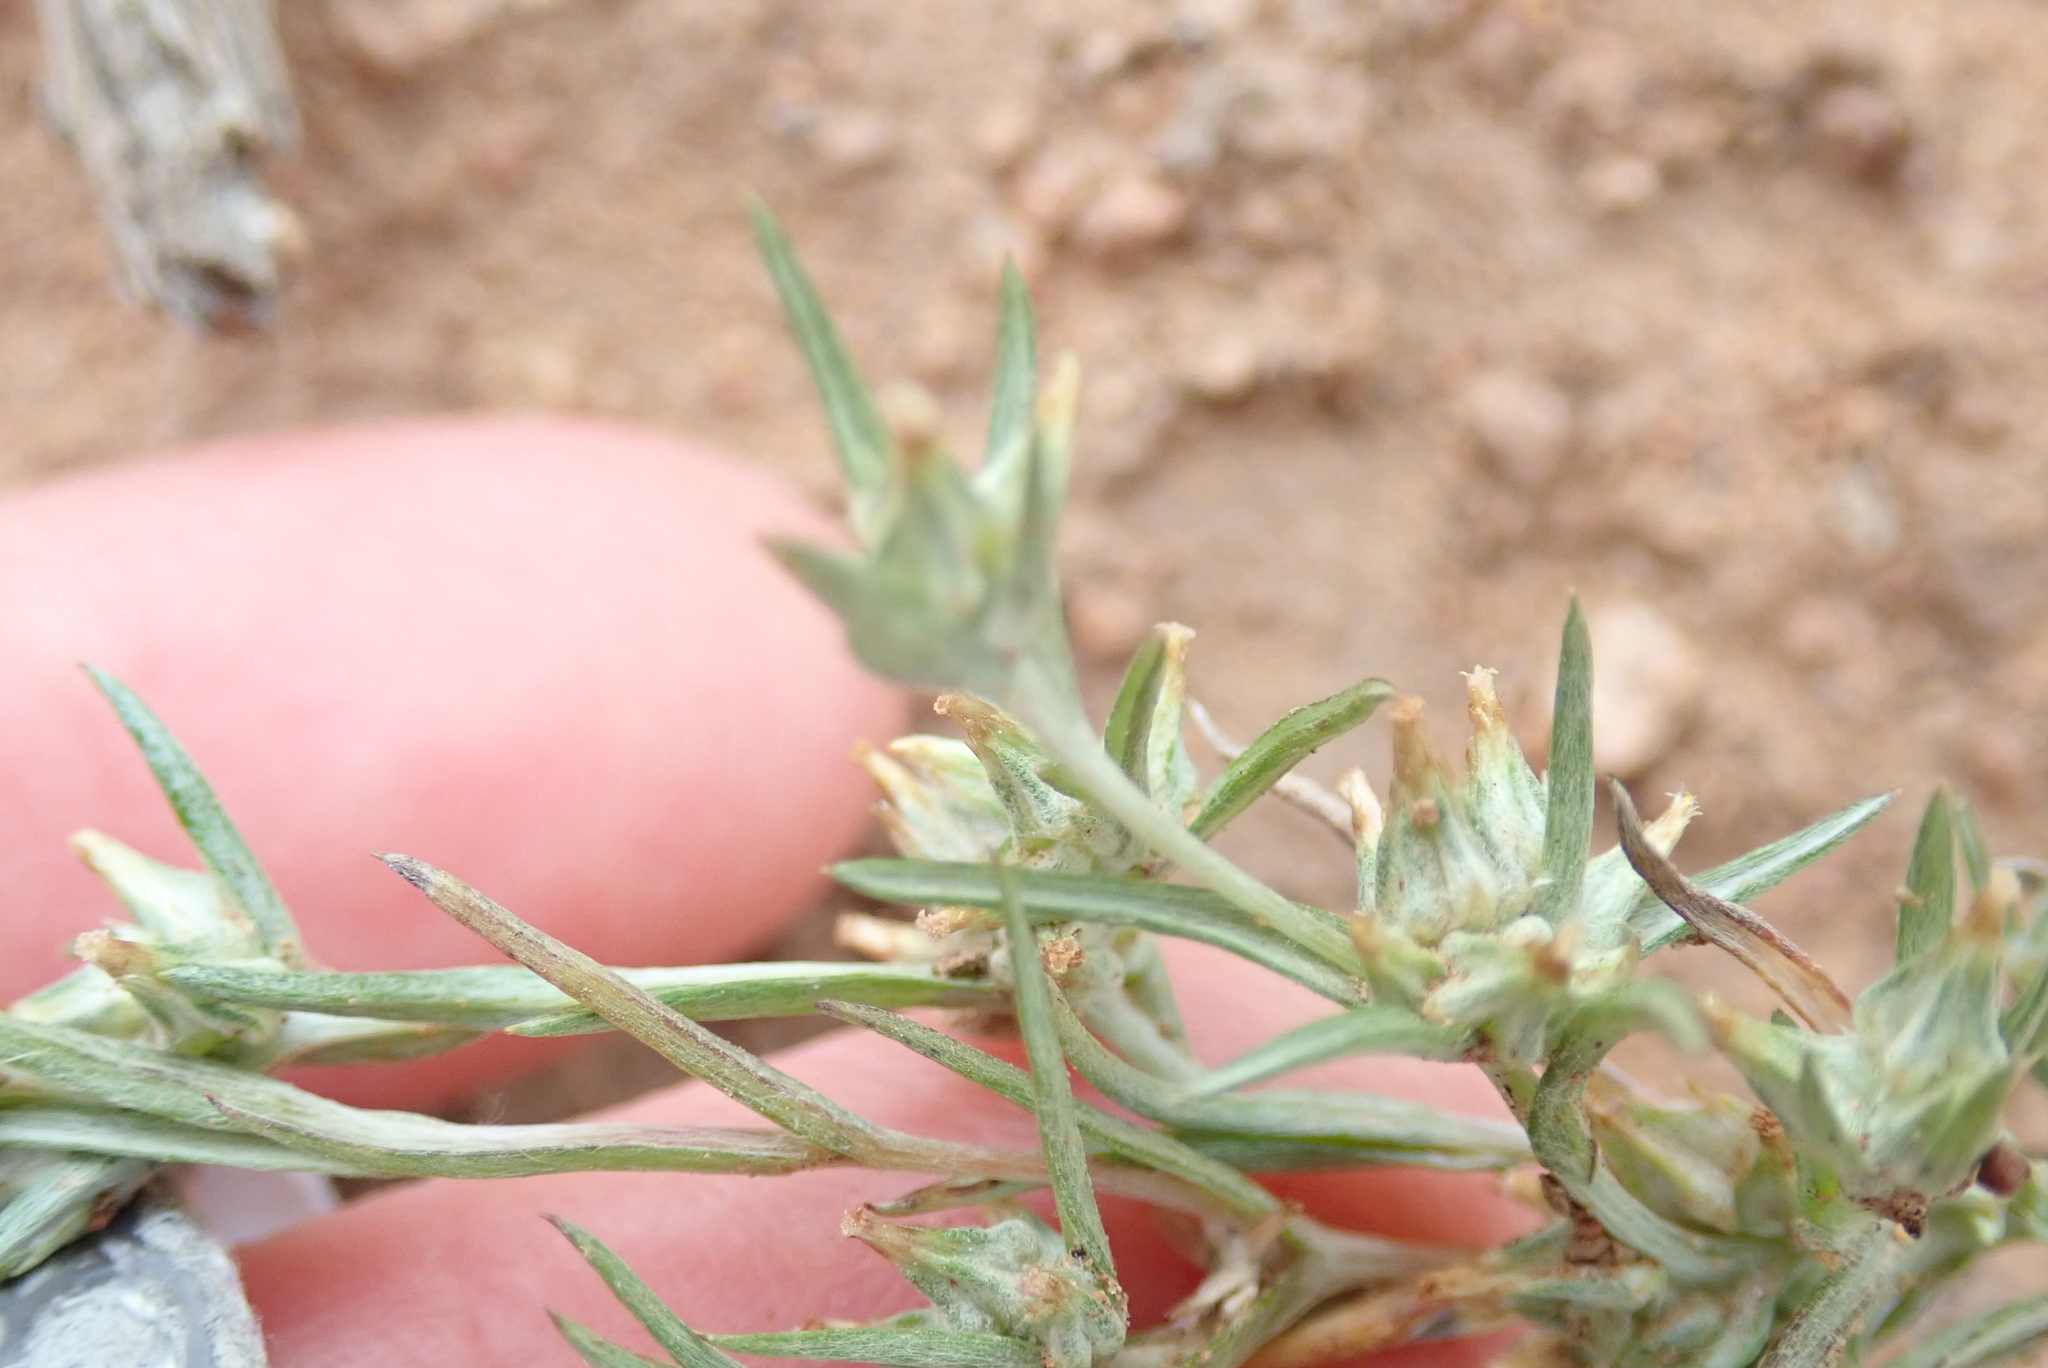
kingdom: Plantae
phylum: Tracheophyta
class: Magnoliopsida
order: Asterales
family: Asteraceae
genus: Logfia
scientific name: Logfia gallica
